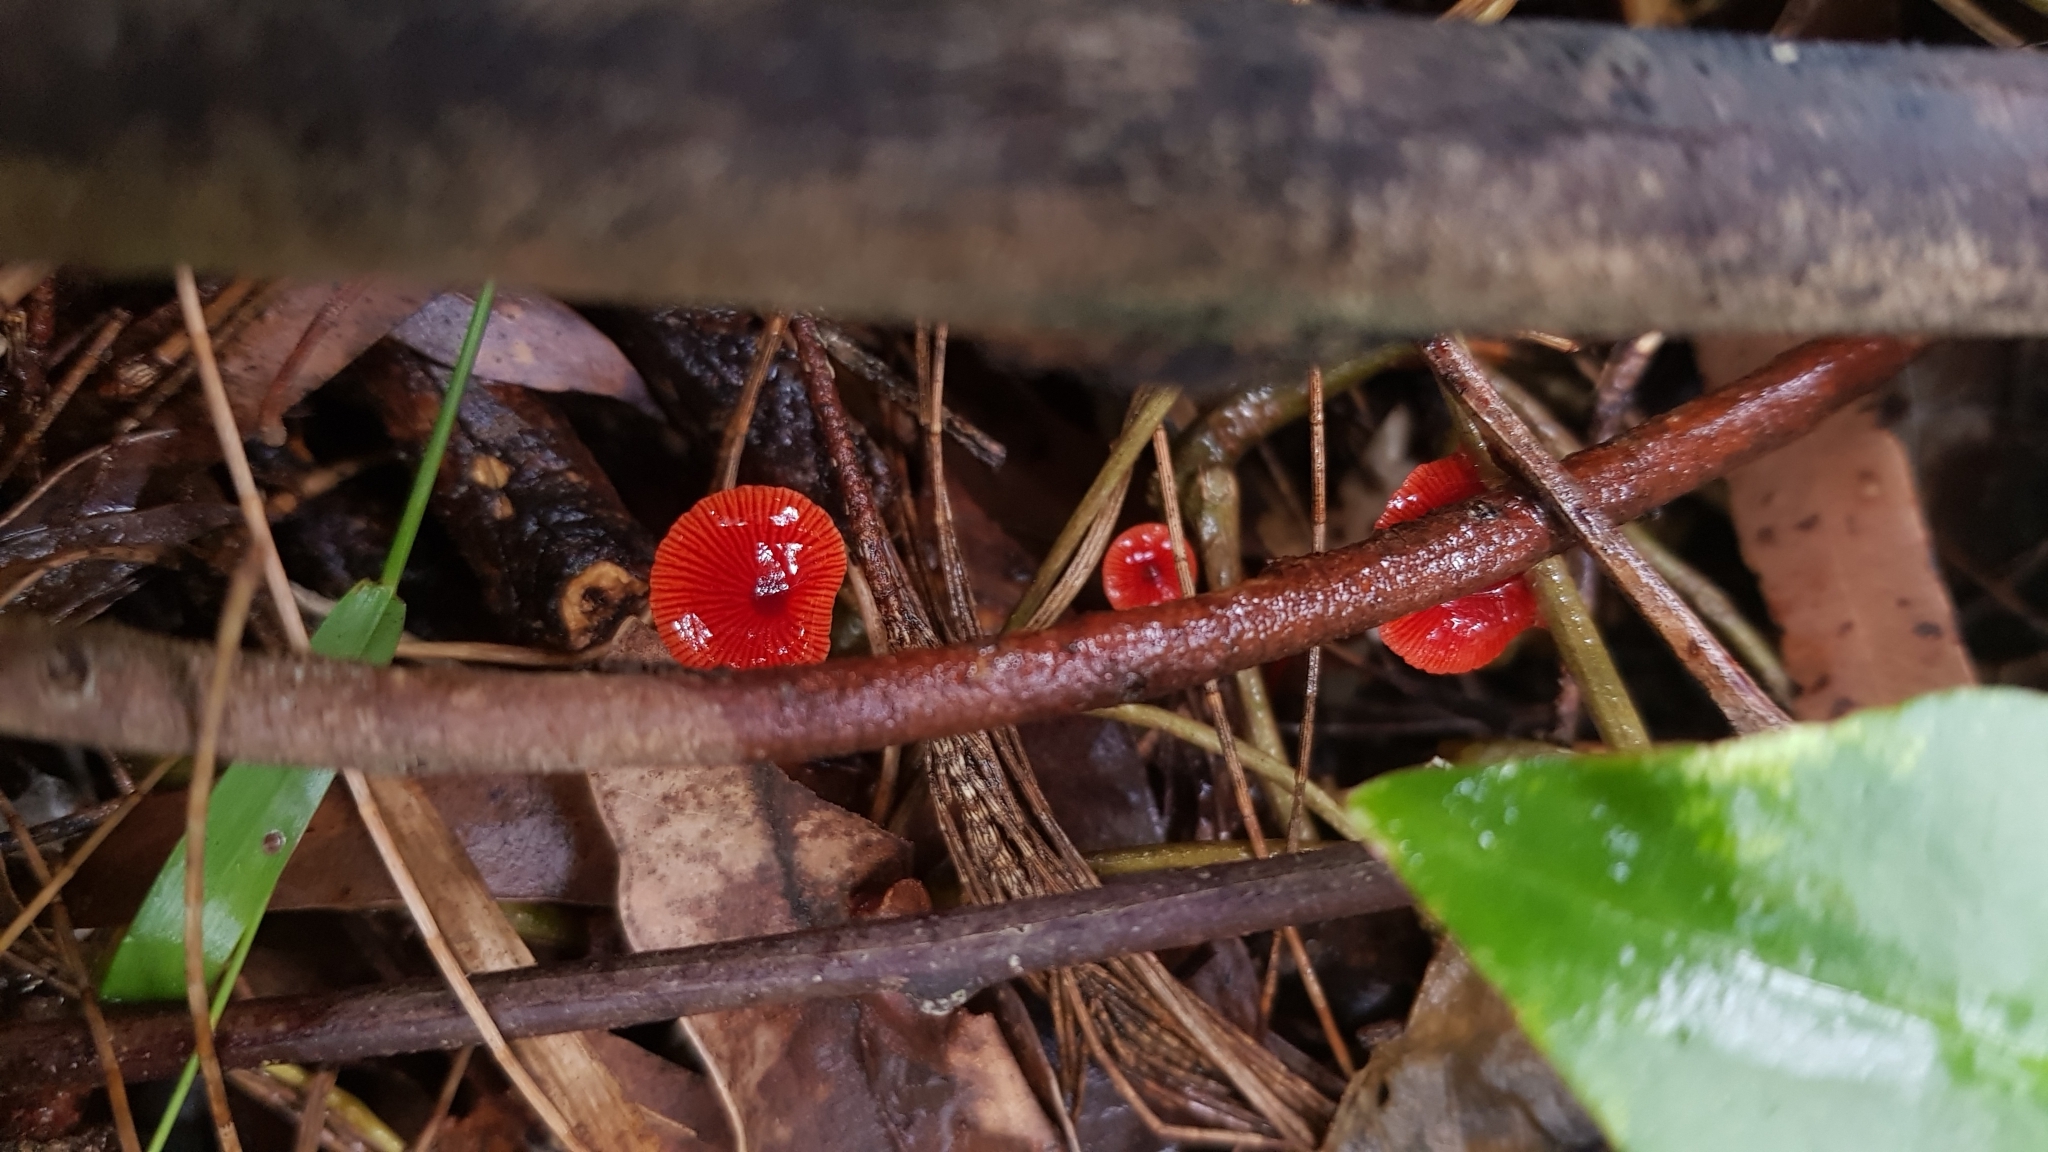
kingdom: Fungi
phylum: Basidiomycota
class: Agaricomycetes
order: Agaricales
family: Mycenaceae
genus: Cruentomycena
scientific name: Cruentomycena viscidocruenta
